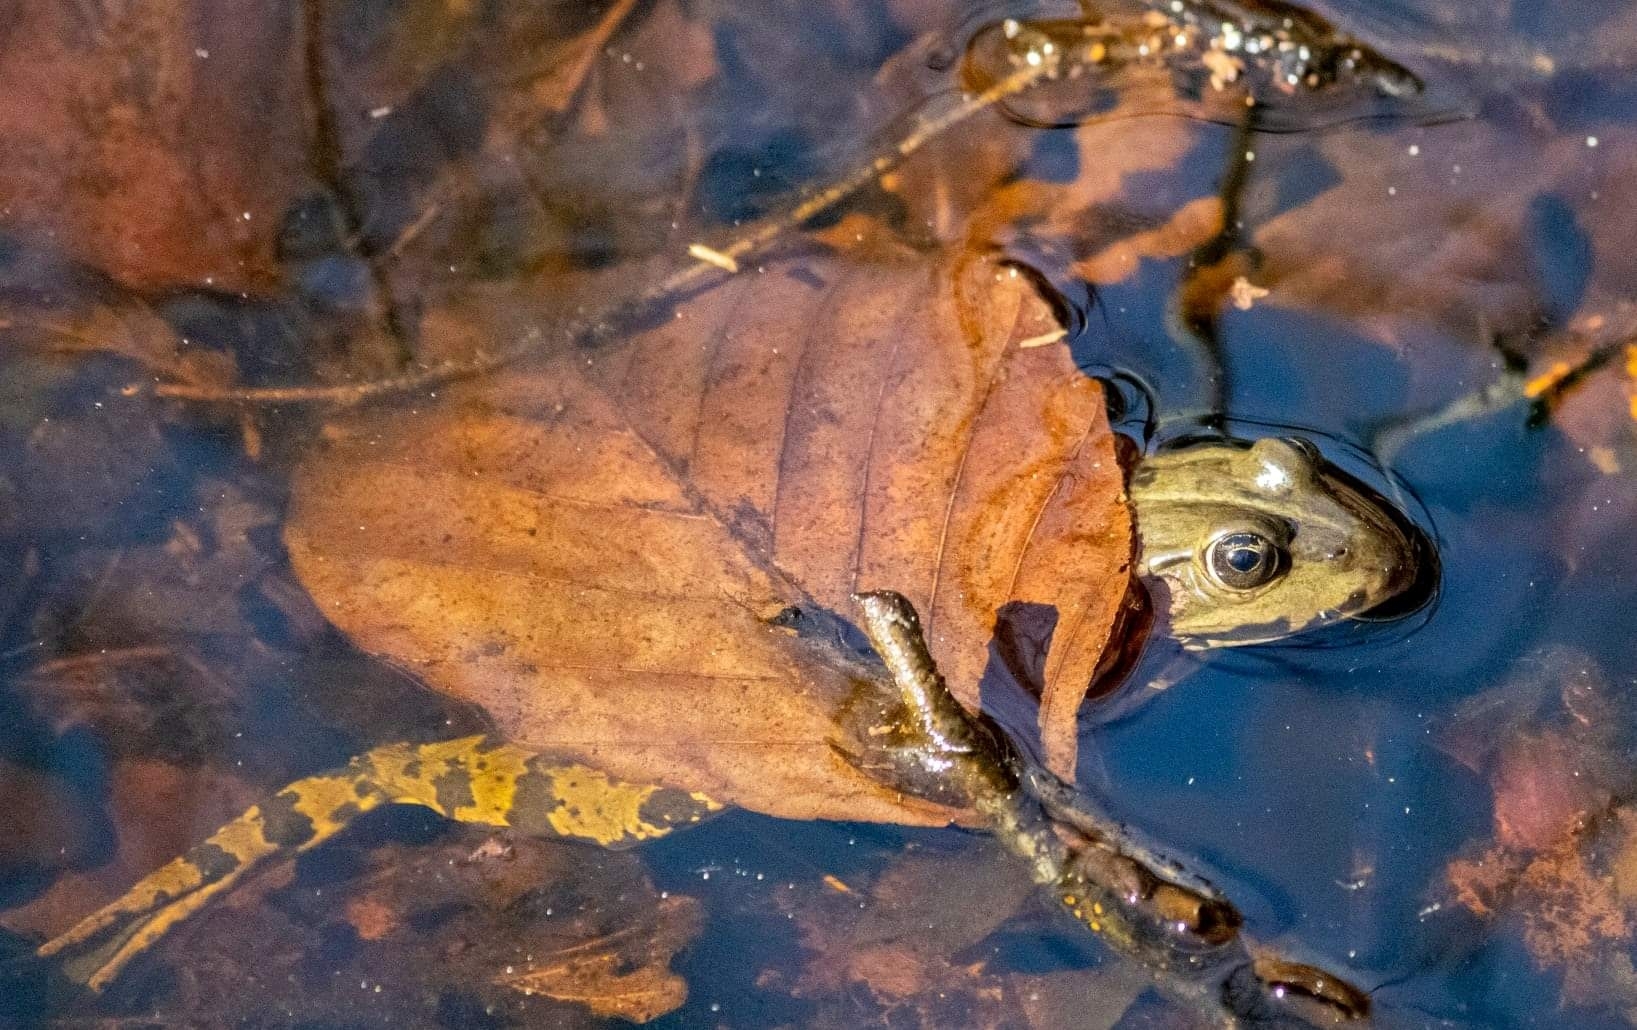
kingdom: Animalia
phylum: Chordata
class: Amphibia
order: Anura
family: Ranidae
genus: Pelophylax
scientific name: Pelophylax lessonae
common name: Pool frog
